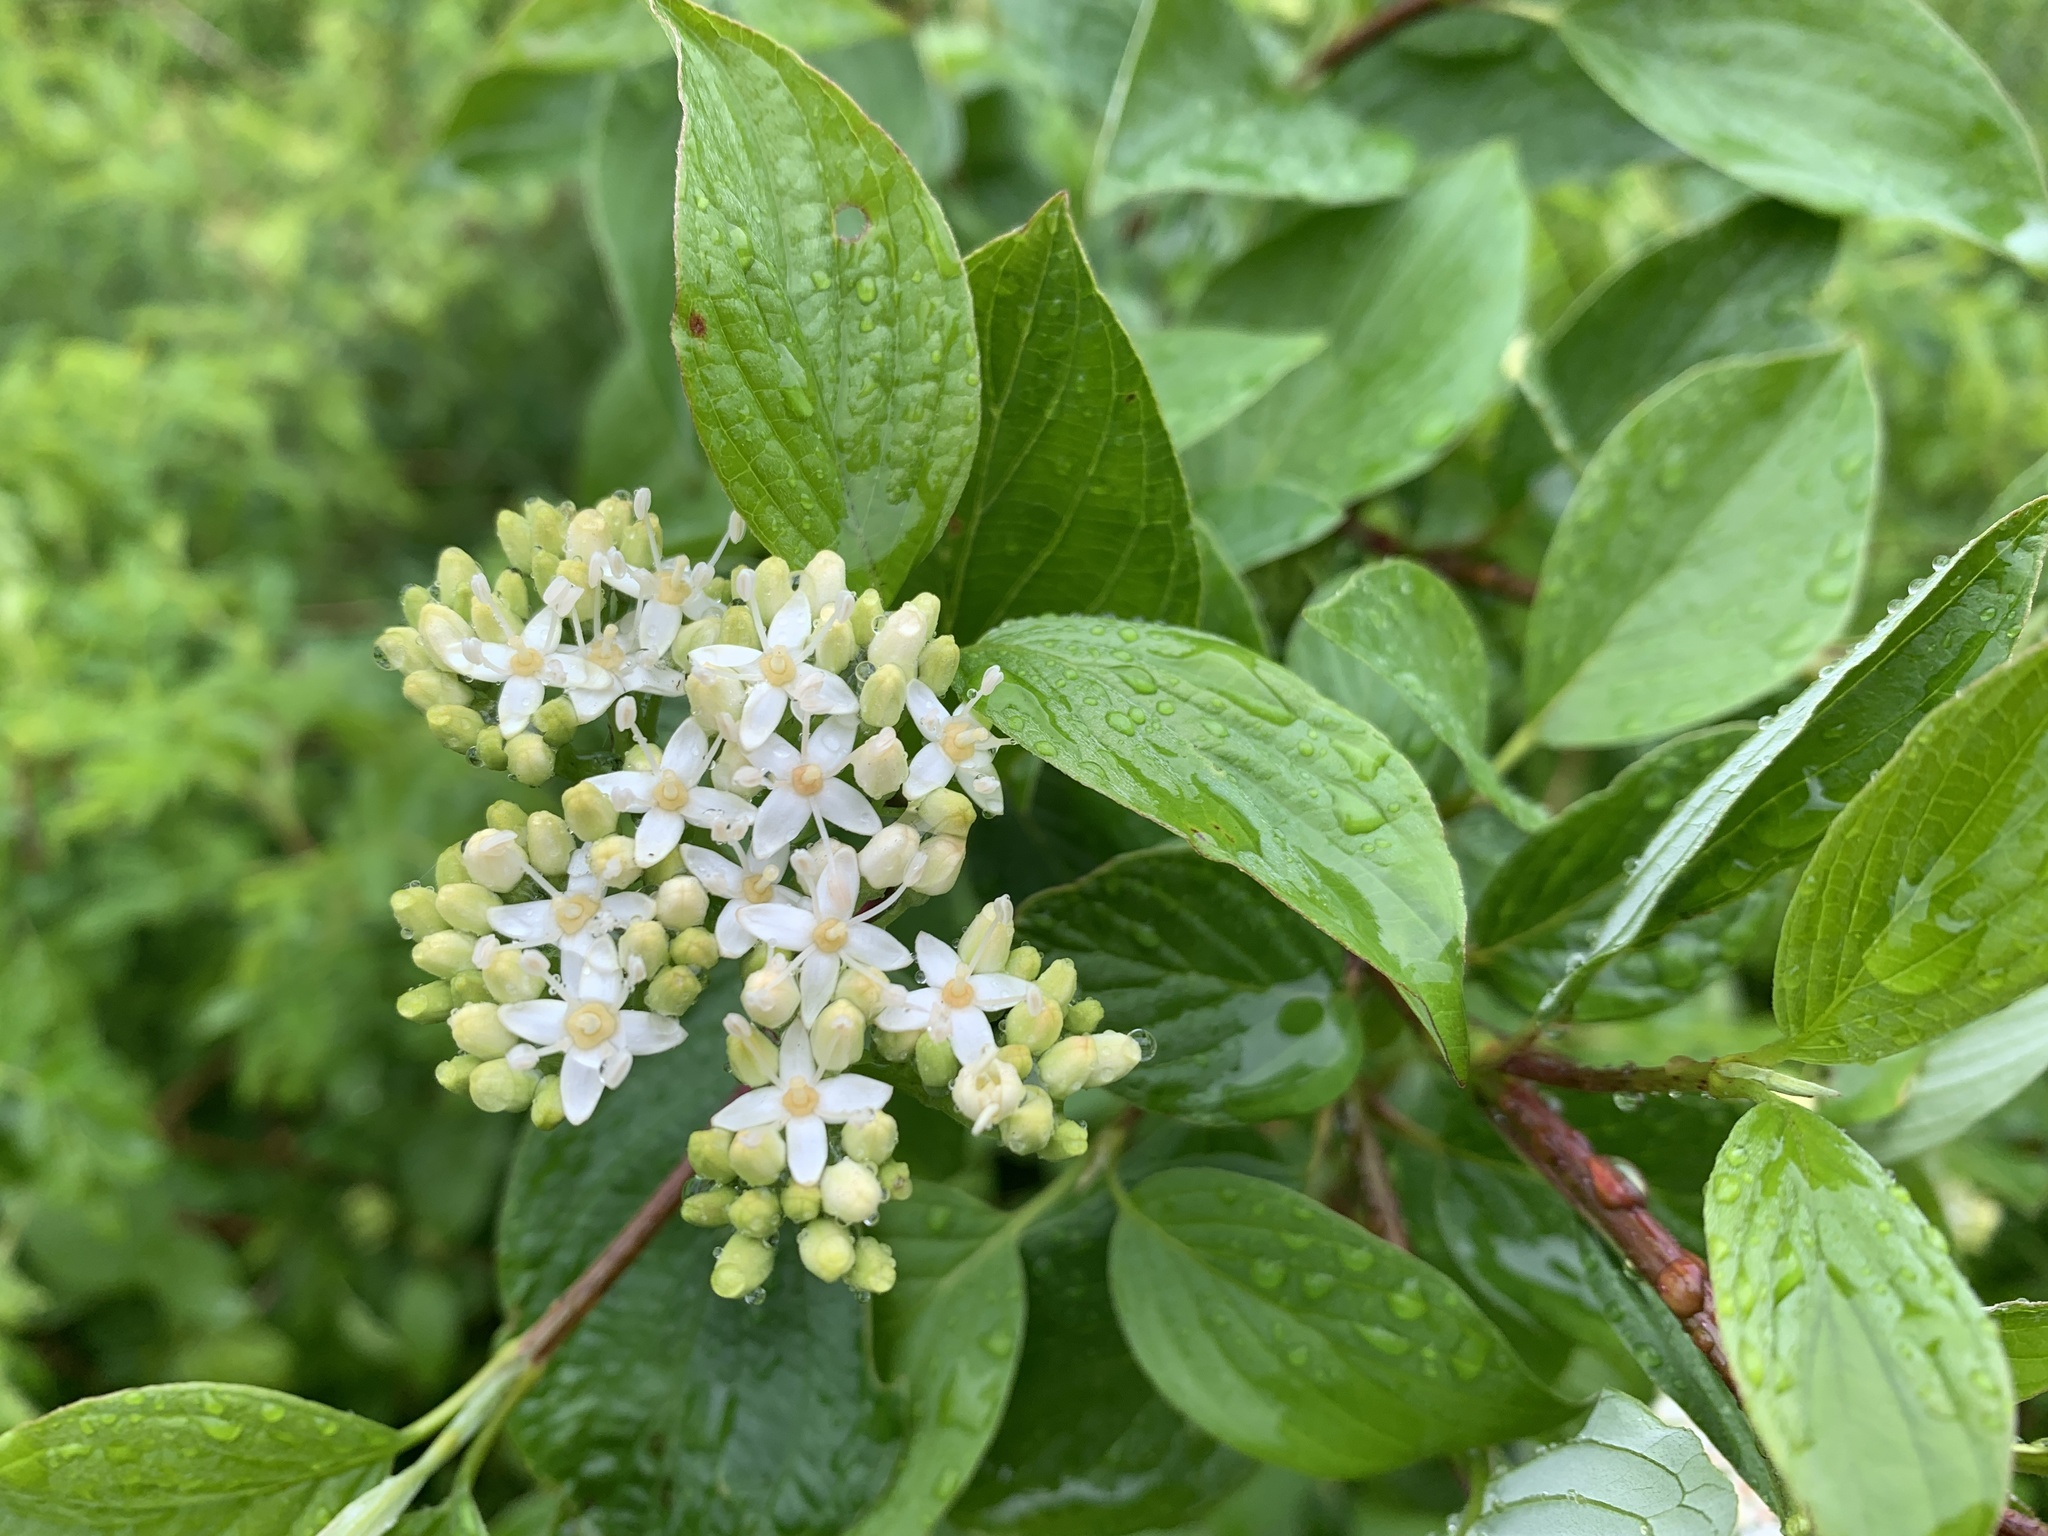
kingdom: Plantae
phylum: Tracheophyta
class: Magnoliopsida
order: Cornales
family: Cornaceae
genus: Cornus
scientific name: Cornus sericea
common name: Red-osier dogwood
